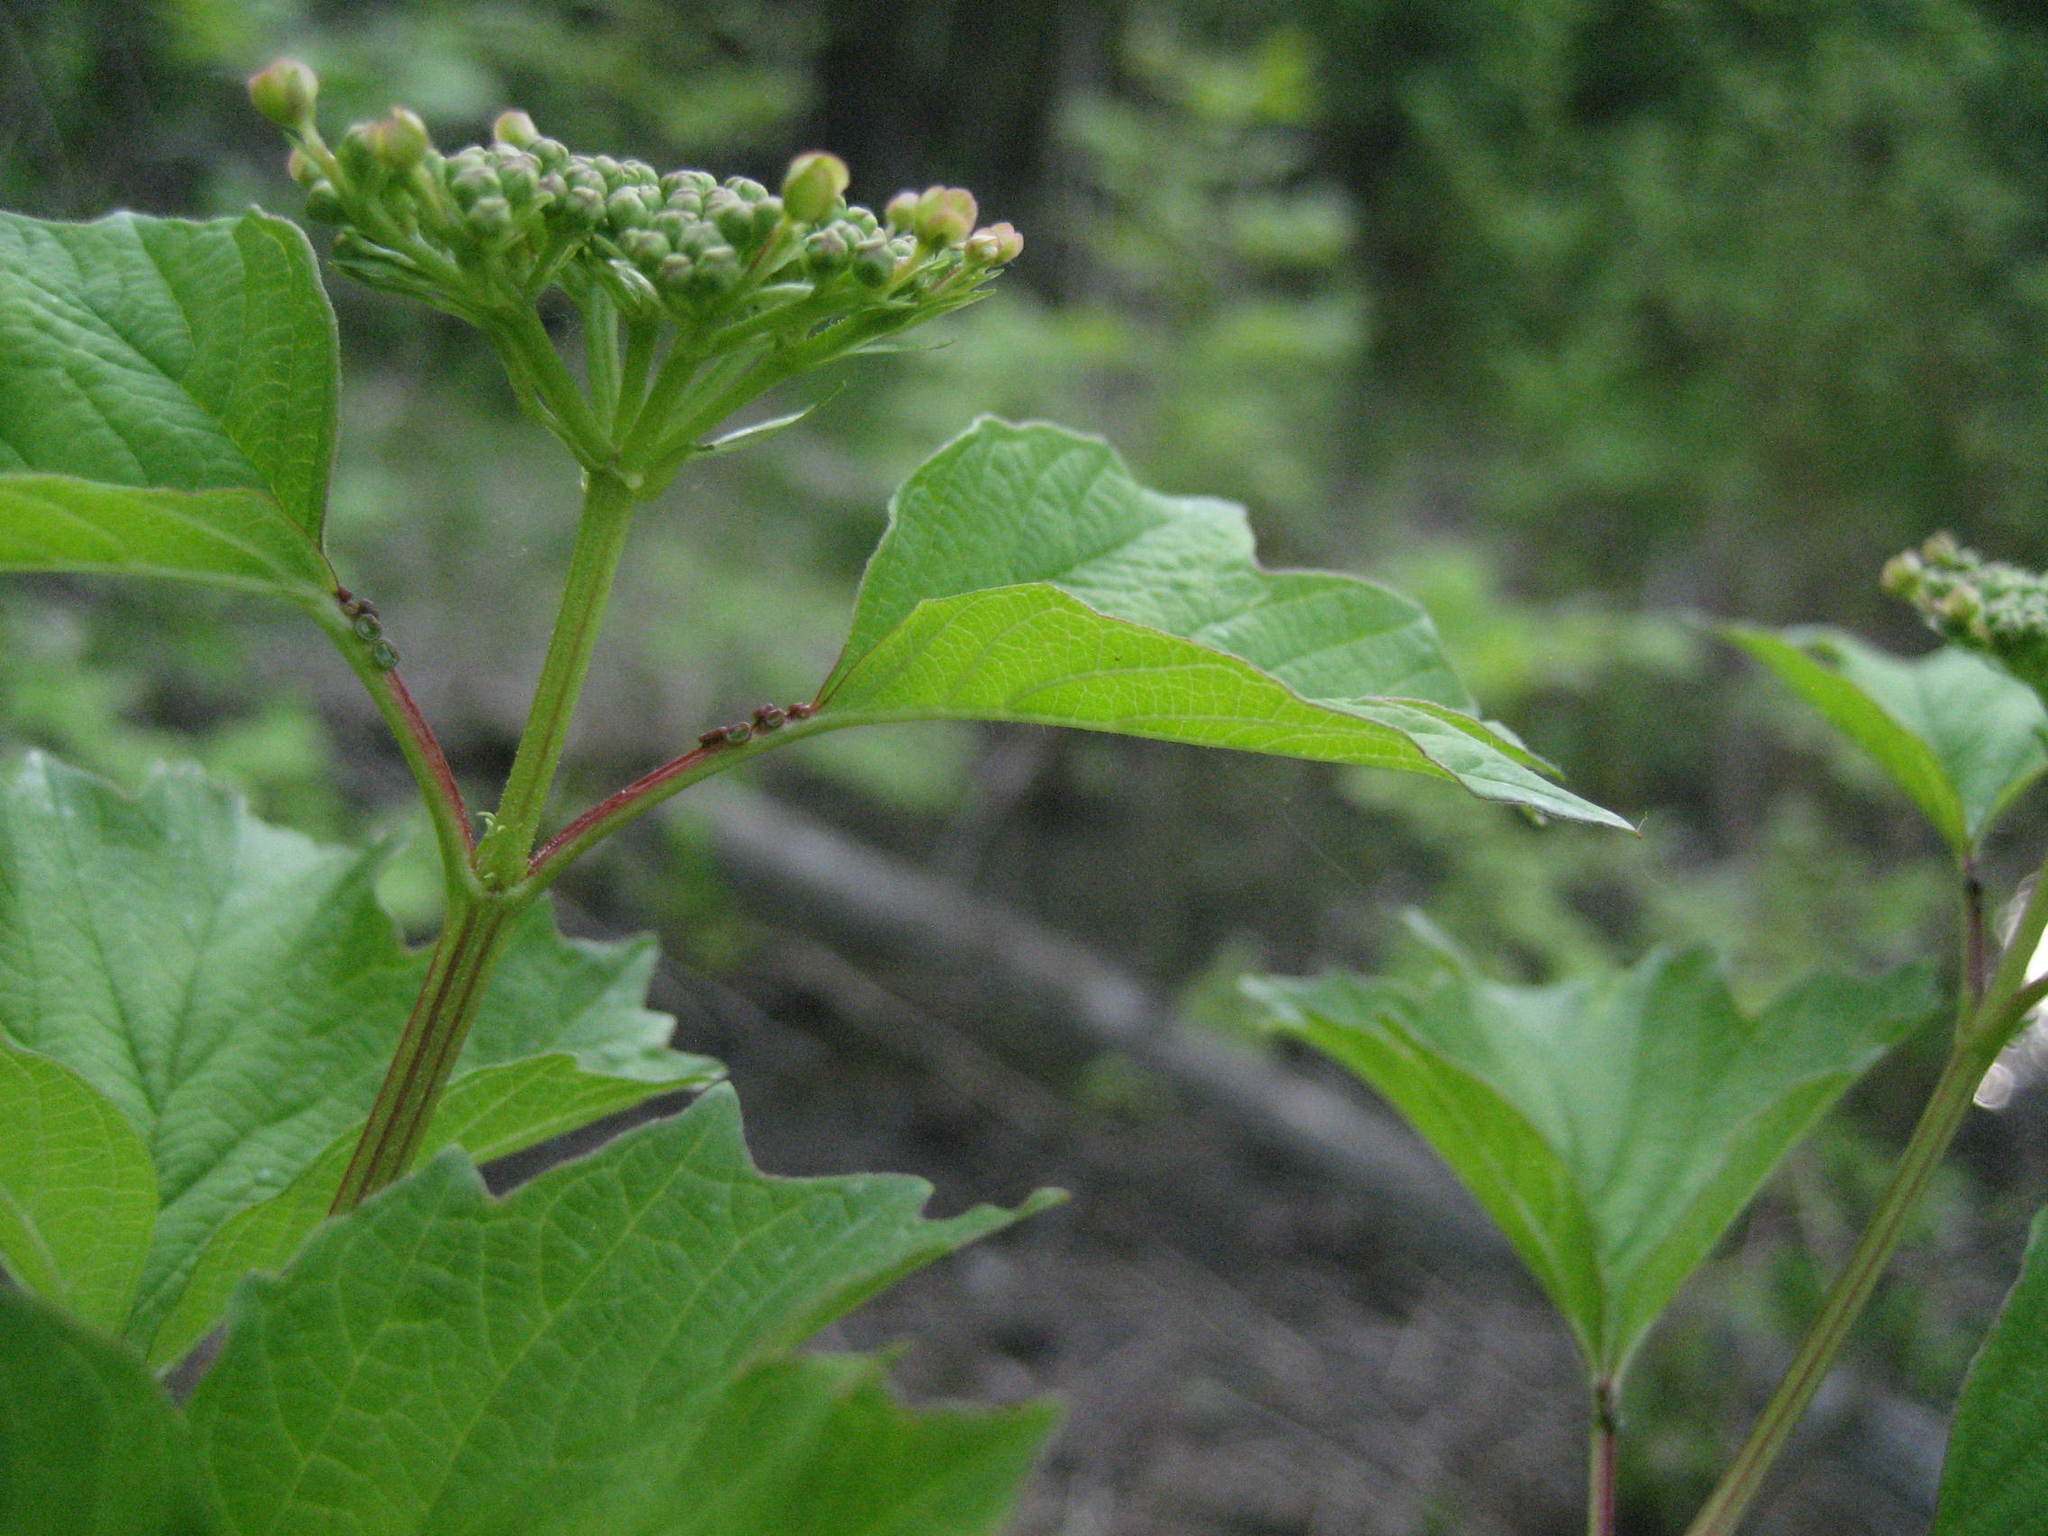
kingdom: Plantae
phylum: Tracheophyta
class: Magnoliopsida
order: Dipsacales
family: Viburnaceae
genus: Viburnum
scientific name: Viburnum opulus
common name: Guelder-rose
